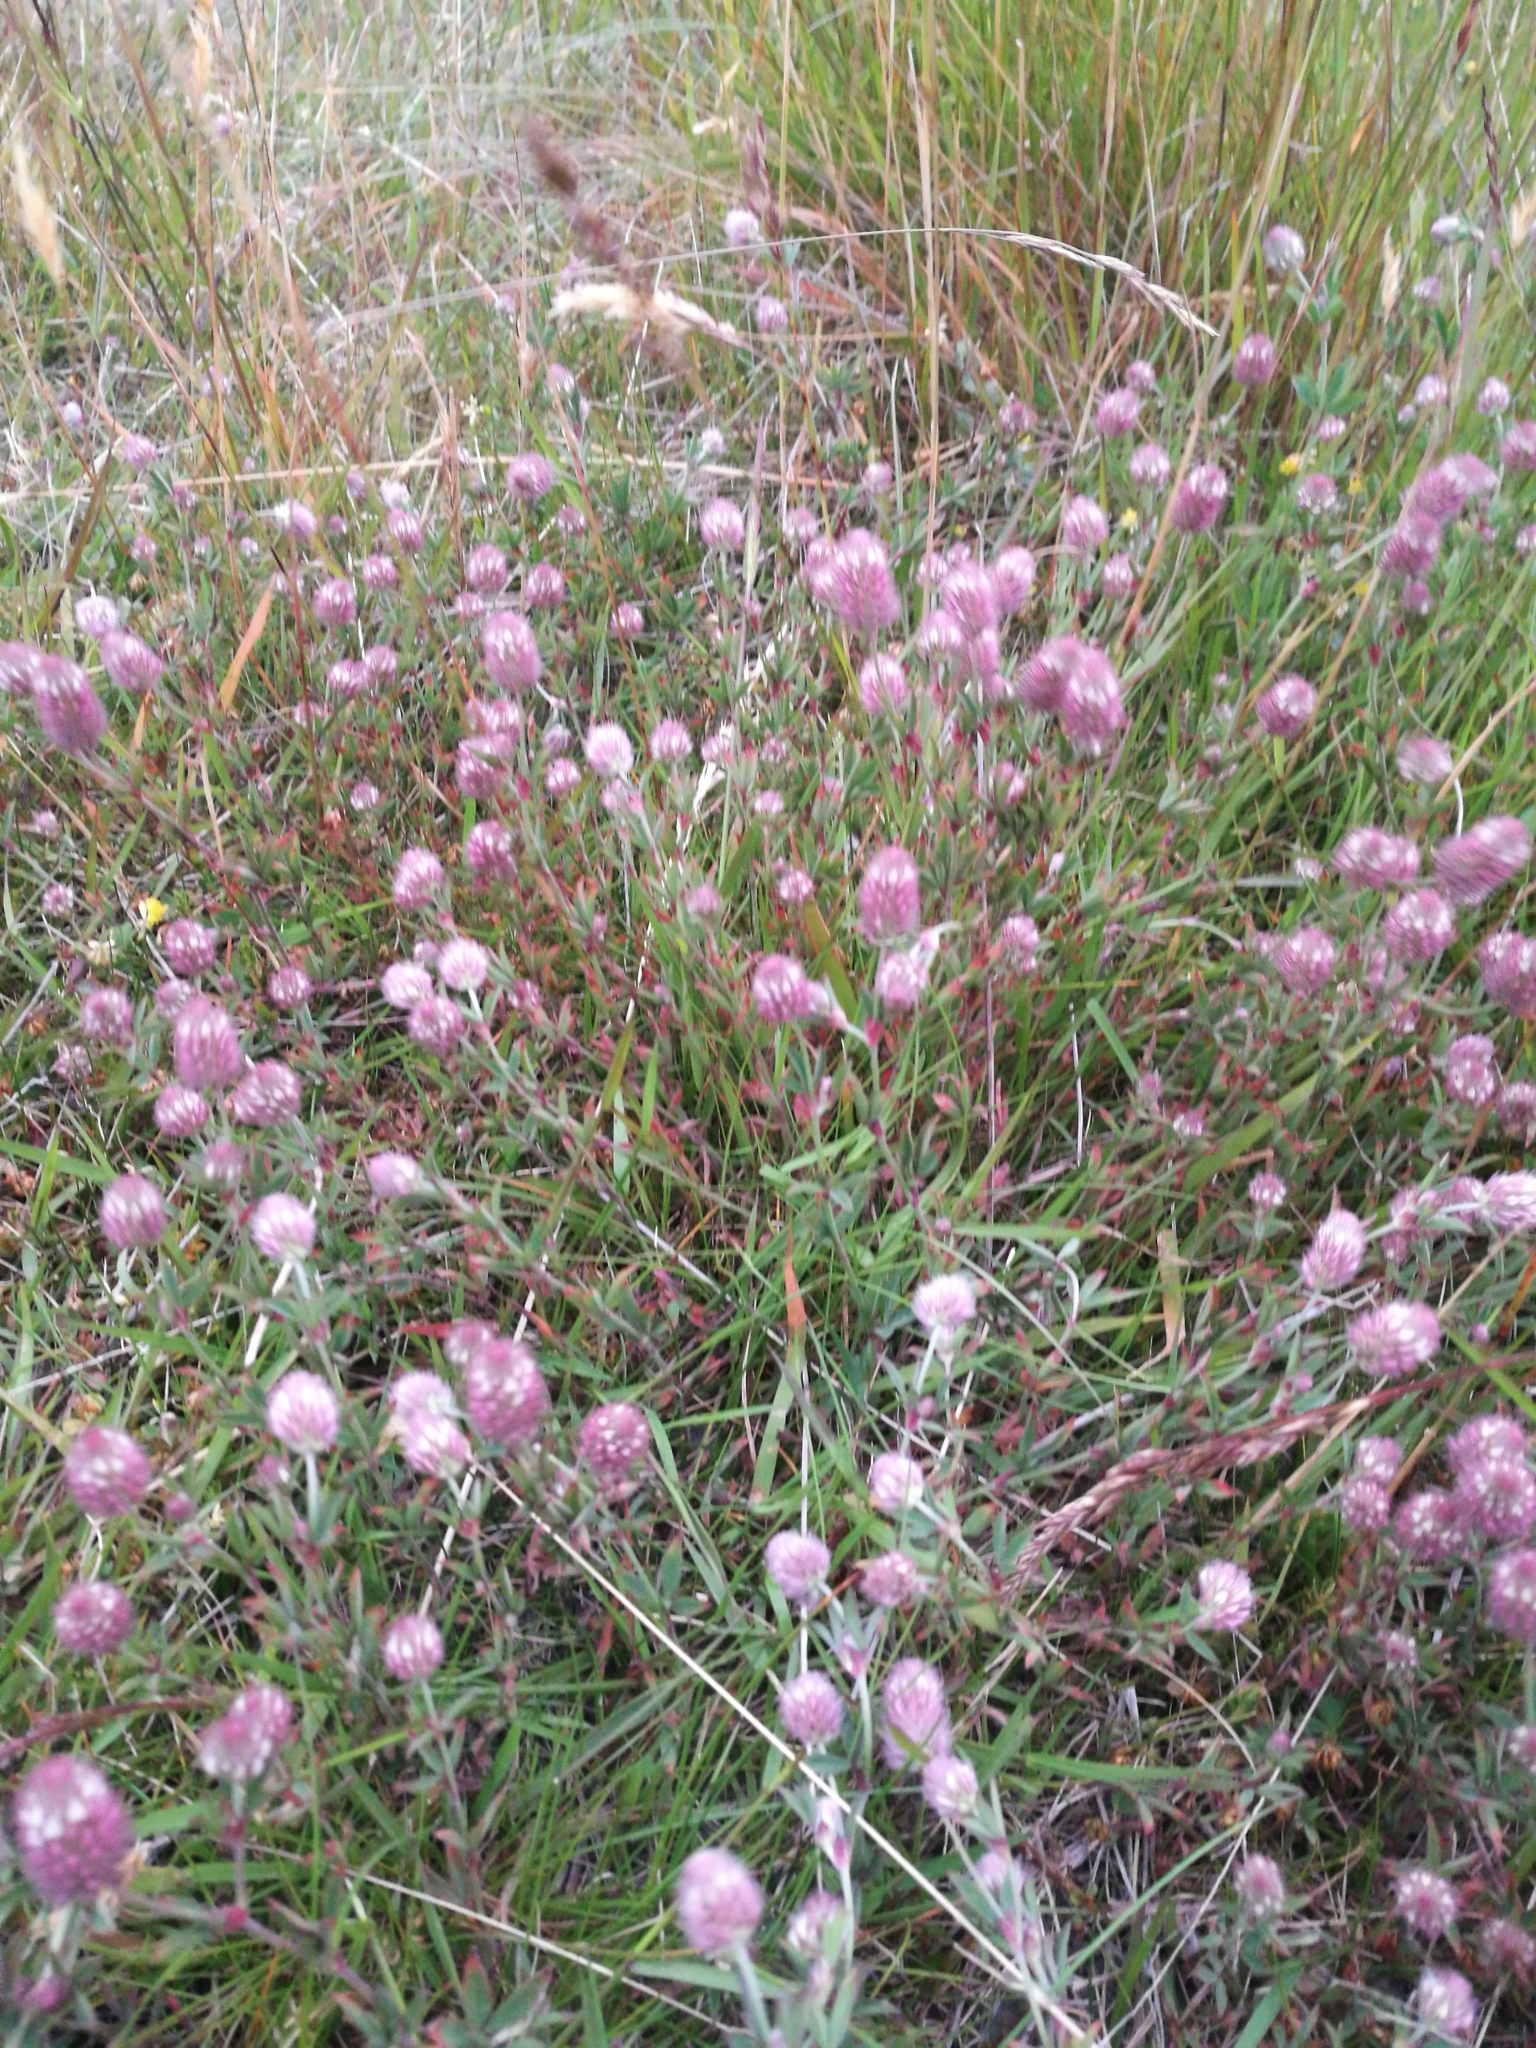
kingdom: Plantae
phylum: Tracheophyta
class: Magnoliopsida
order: Fabales
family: Fabaceae
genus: Trifolium
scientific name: Trifolium arvense
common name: Hare's-foot clover
